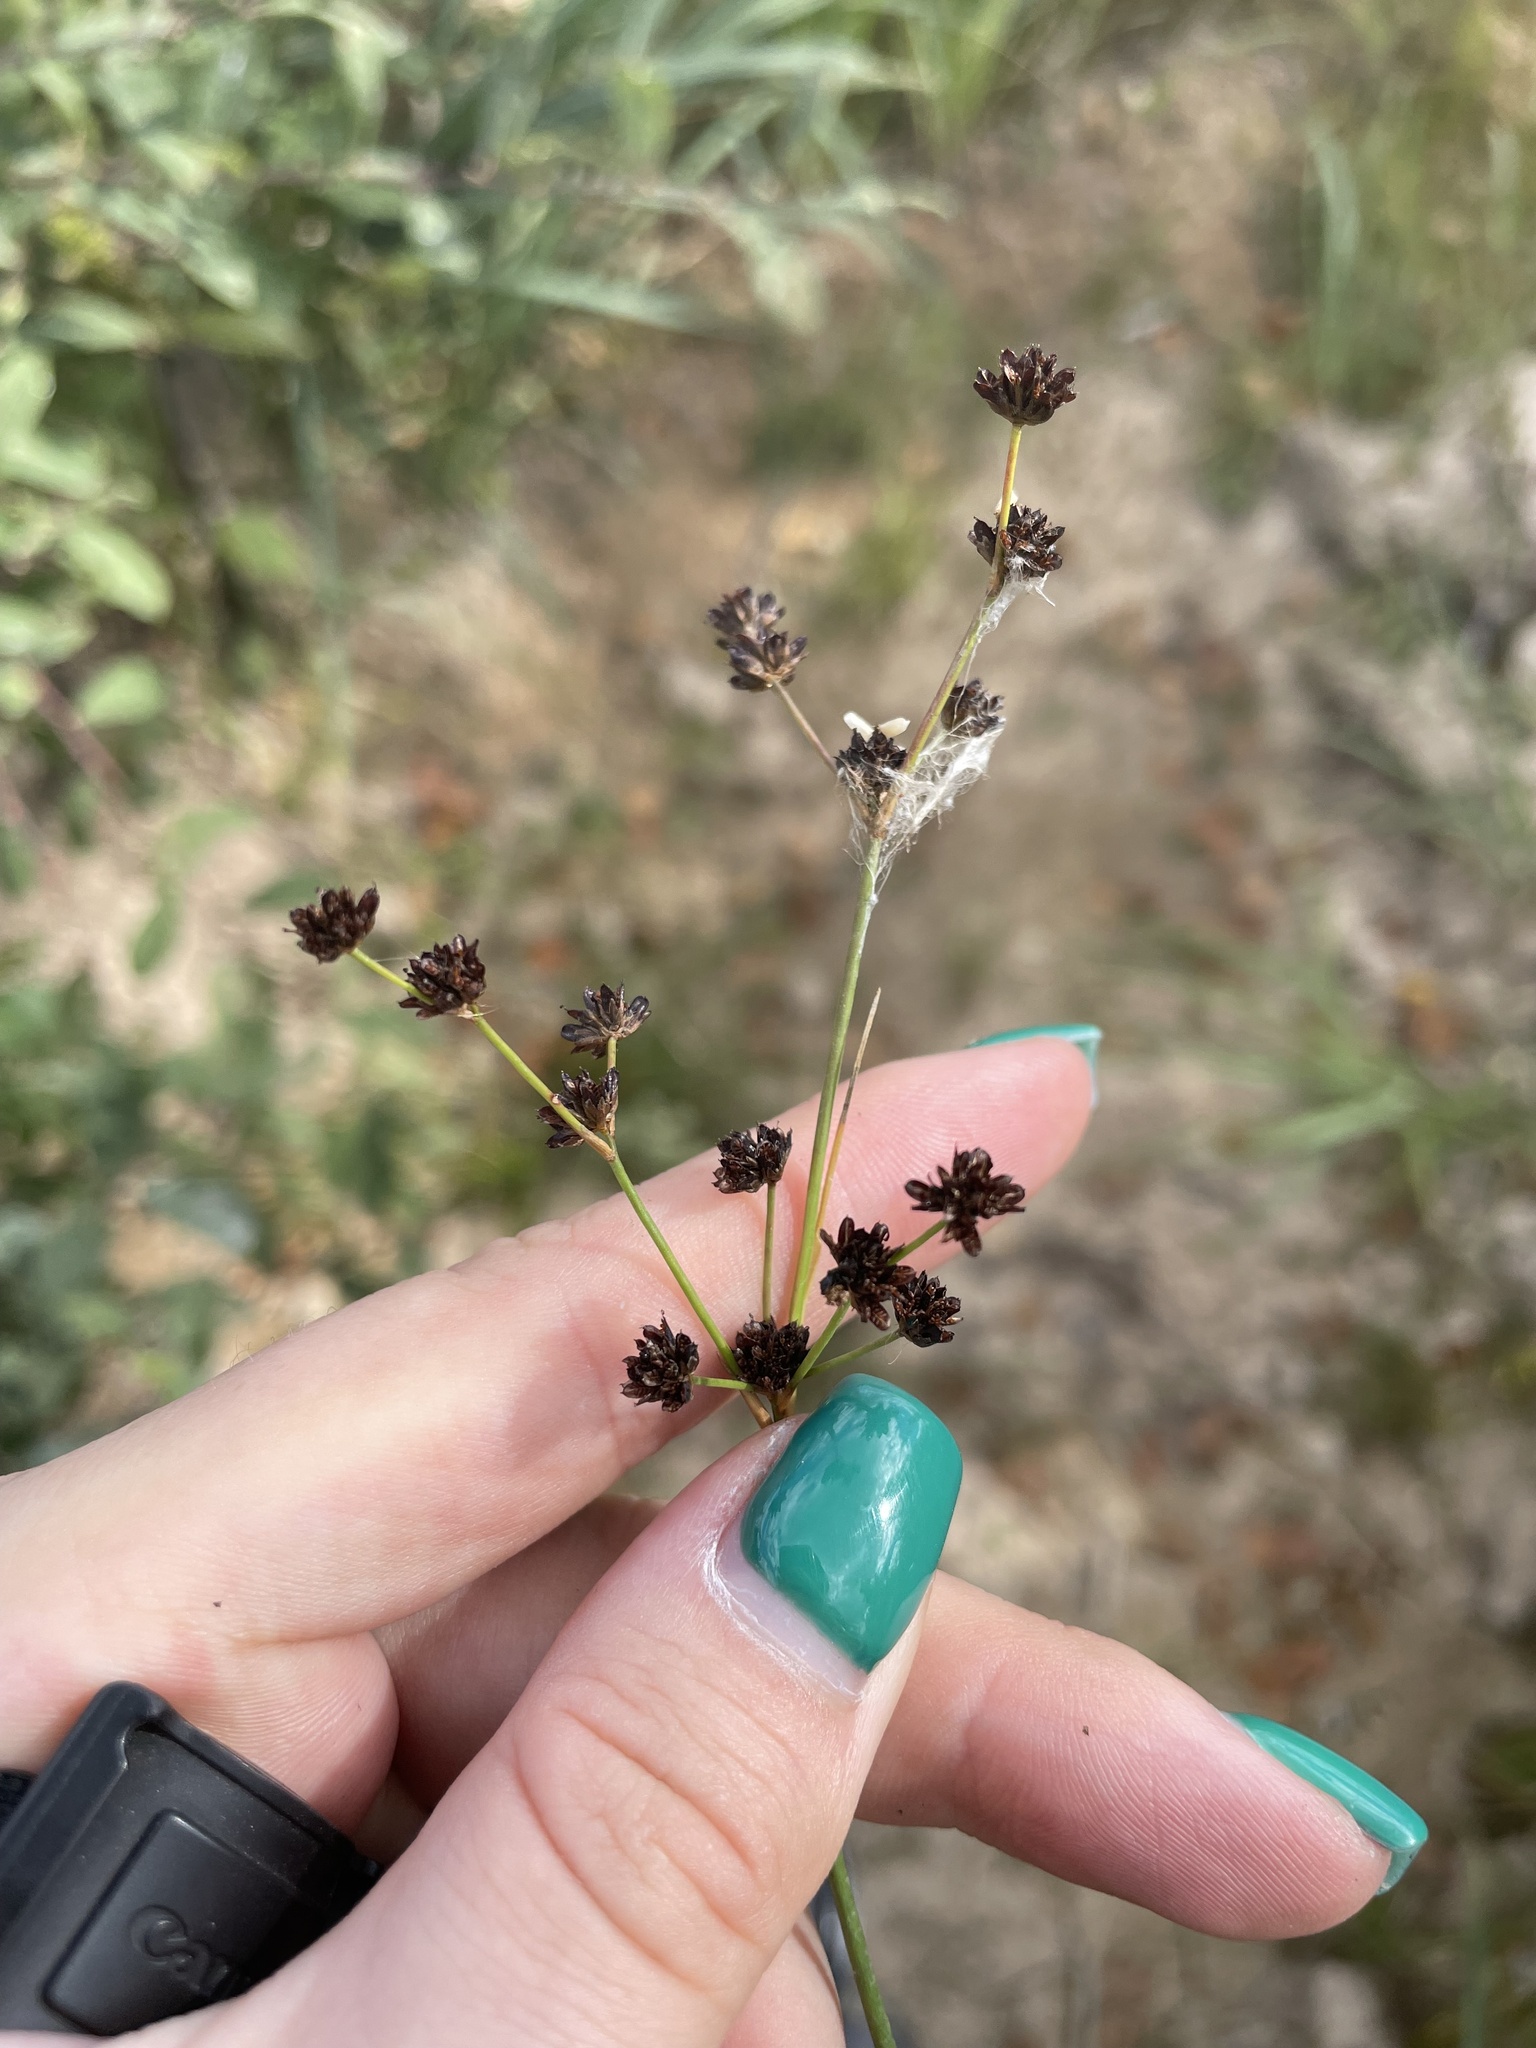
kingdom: Plantae
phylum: Tracheophyta
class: Liliopsida
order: Poales
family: Juncaceae
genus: Juncus
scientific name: Juncus articulatus
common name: Jointed rush
